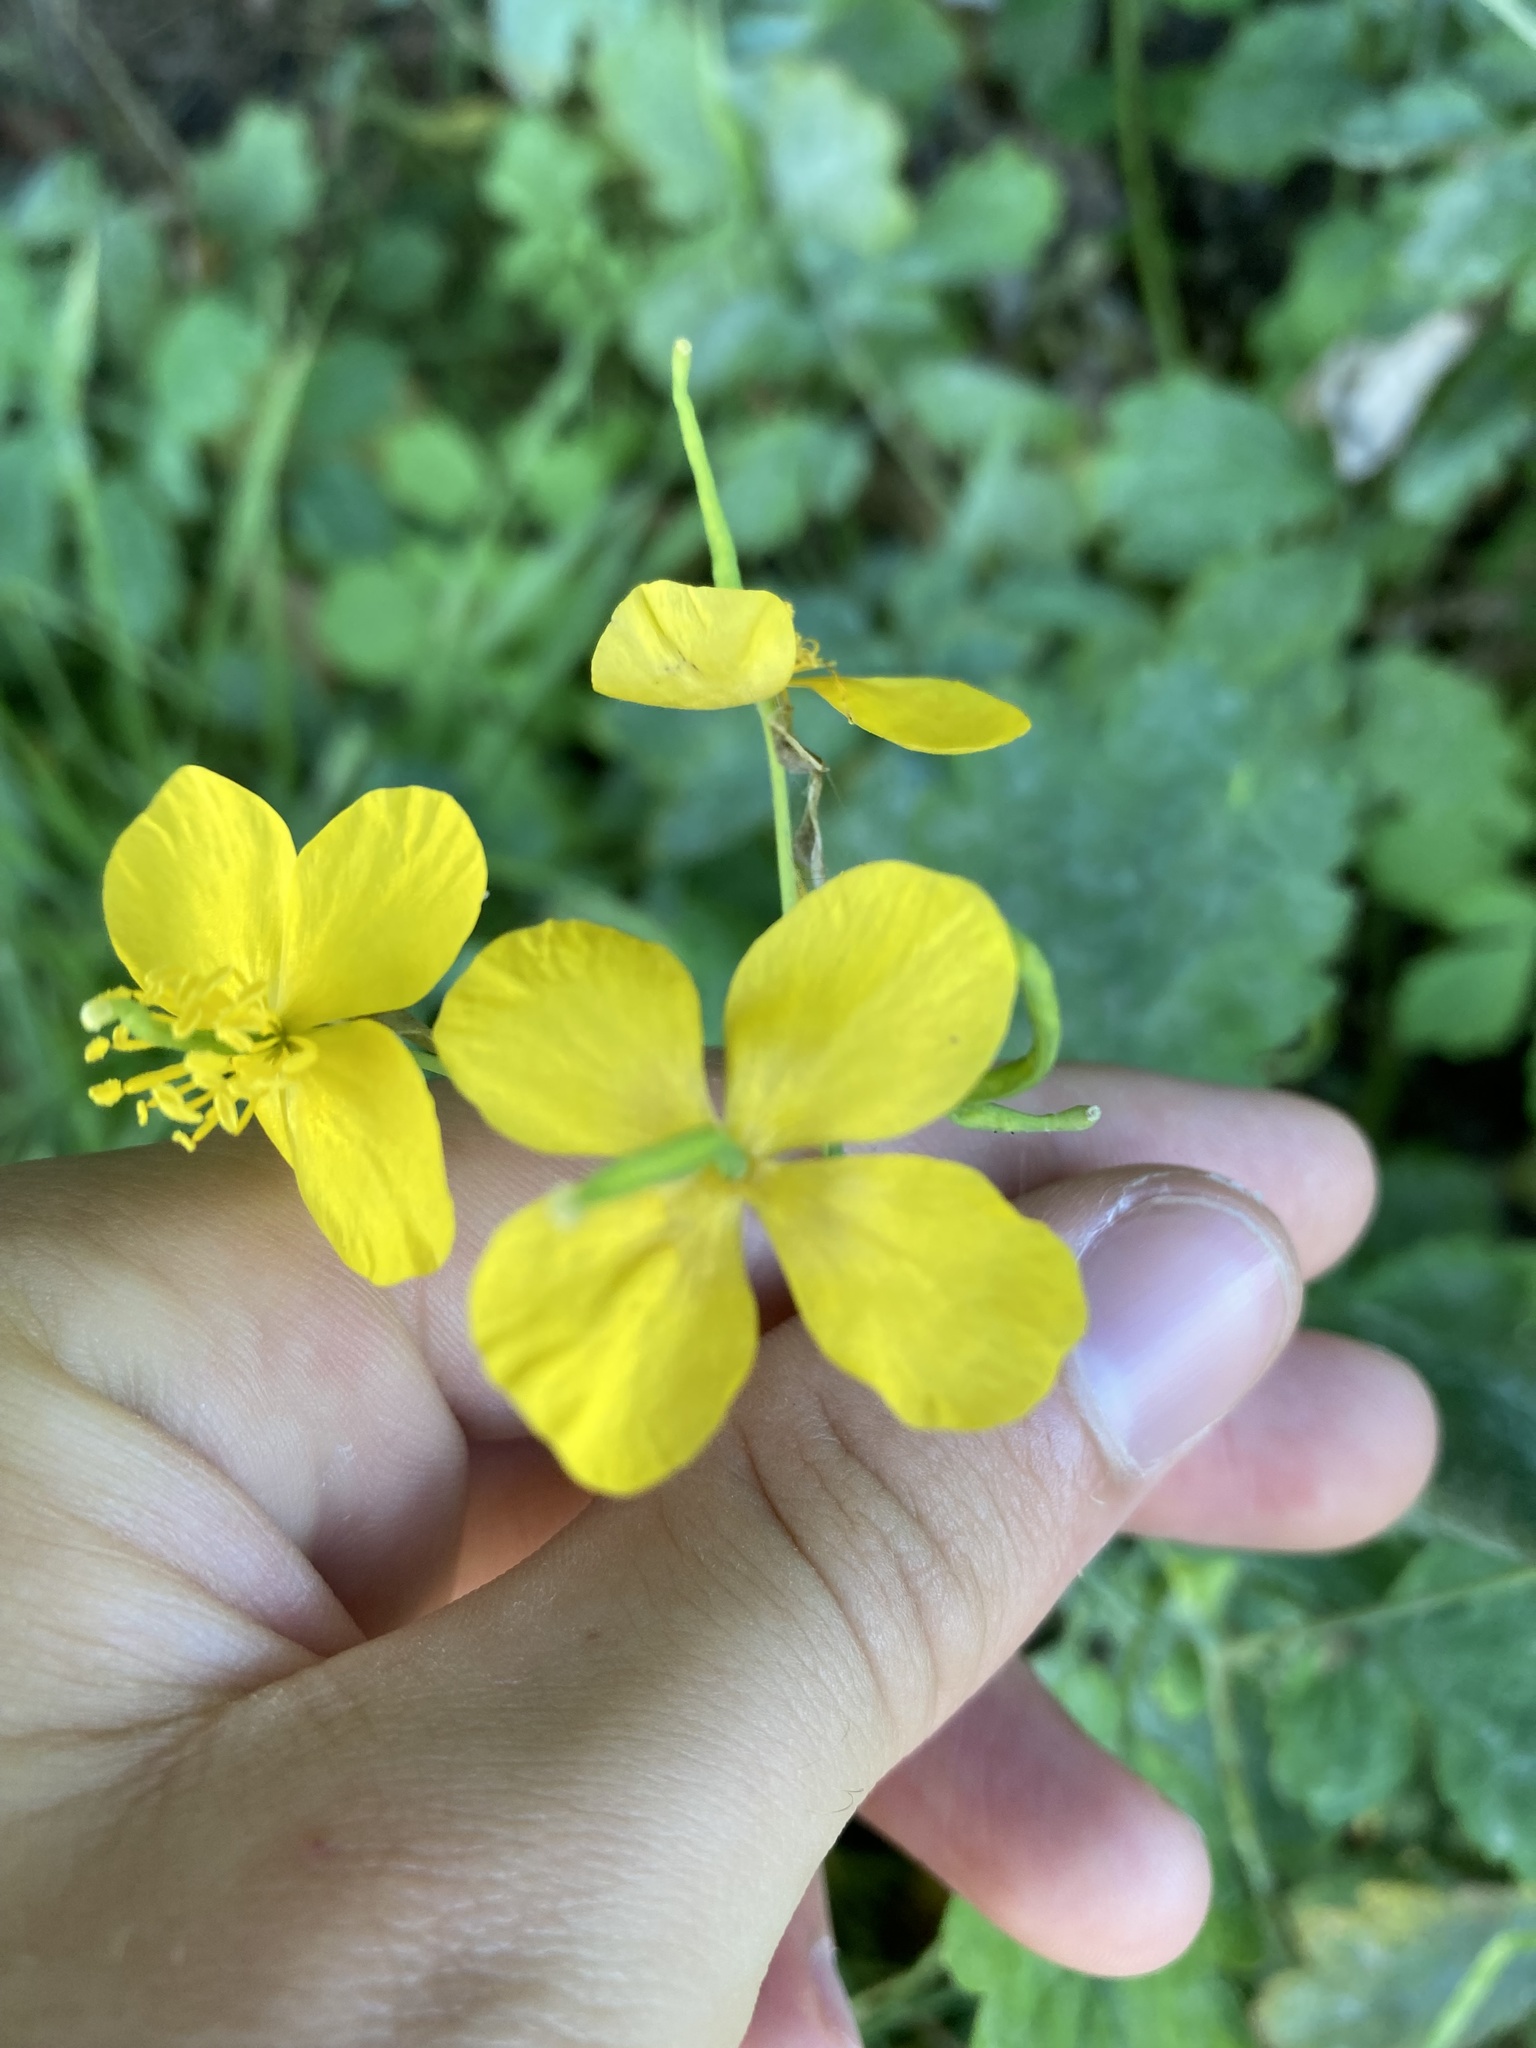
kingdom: Plantae
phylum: Tracheophyta
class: Magnoliopsida
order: Ranunculales
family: Papaveraceae
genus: Chelidonium
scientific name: Chelidonium majus
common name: Greater celandine
